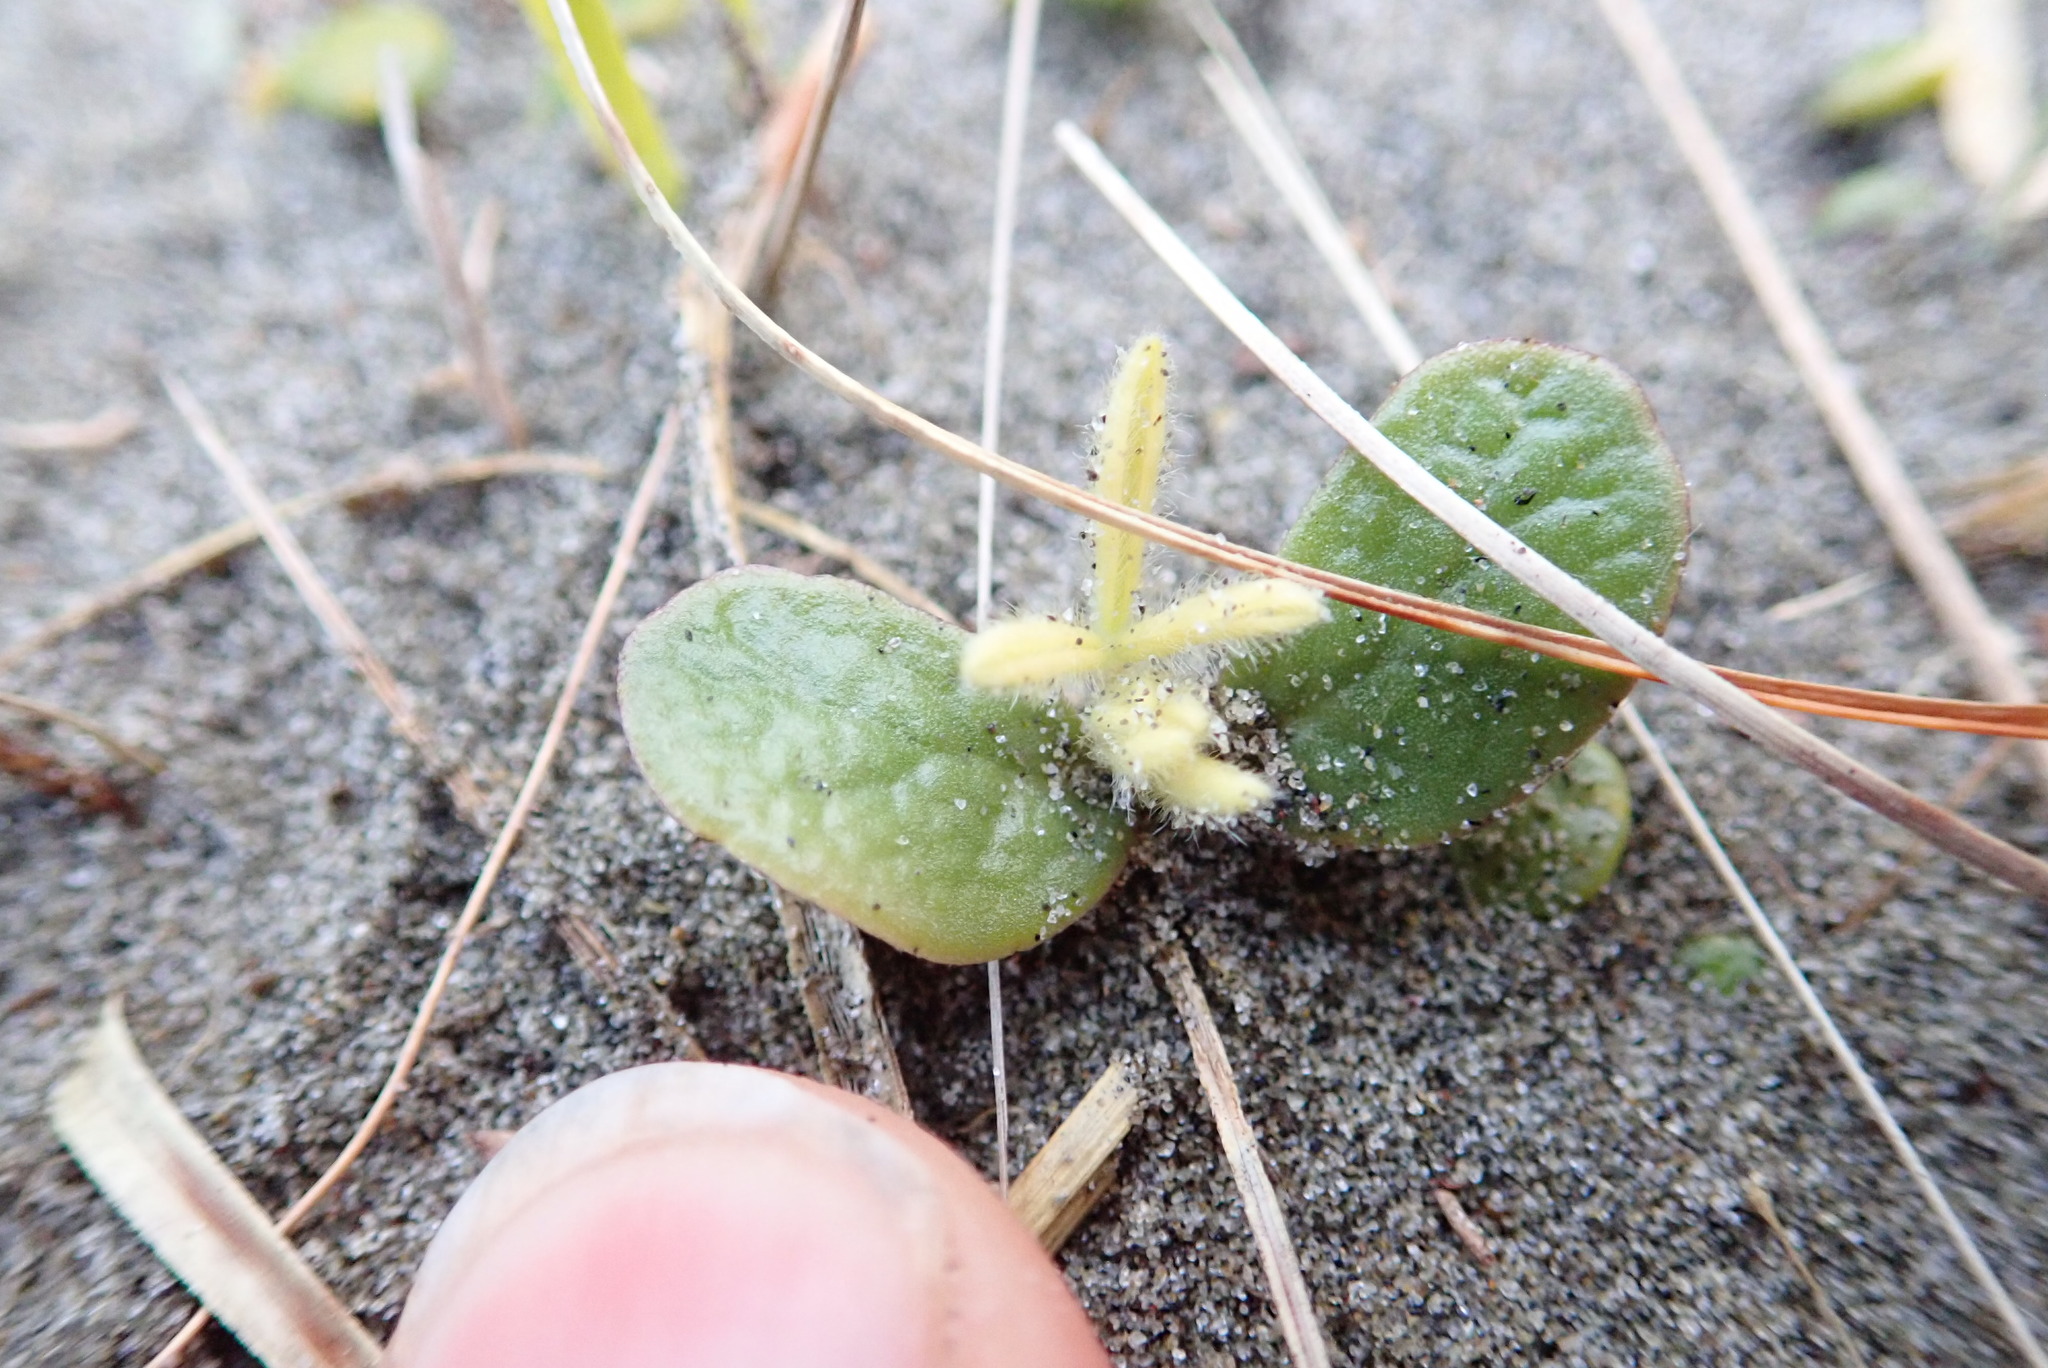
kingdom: Plantae
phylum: Tracheophyta
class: Magnoliopsida
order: Fabales
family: Fabaceae
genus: Lupinus
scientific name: Lupinus arboreus
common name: Yellow bush lupine
